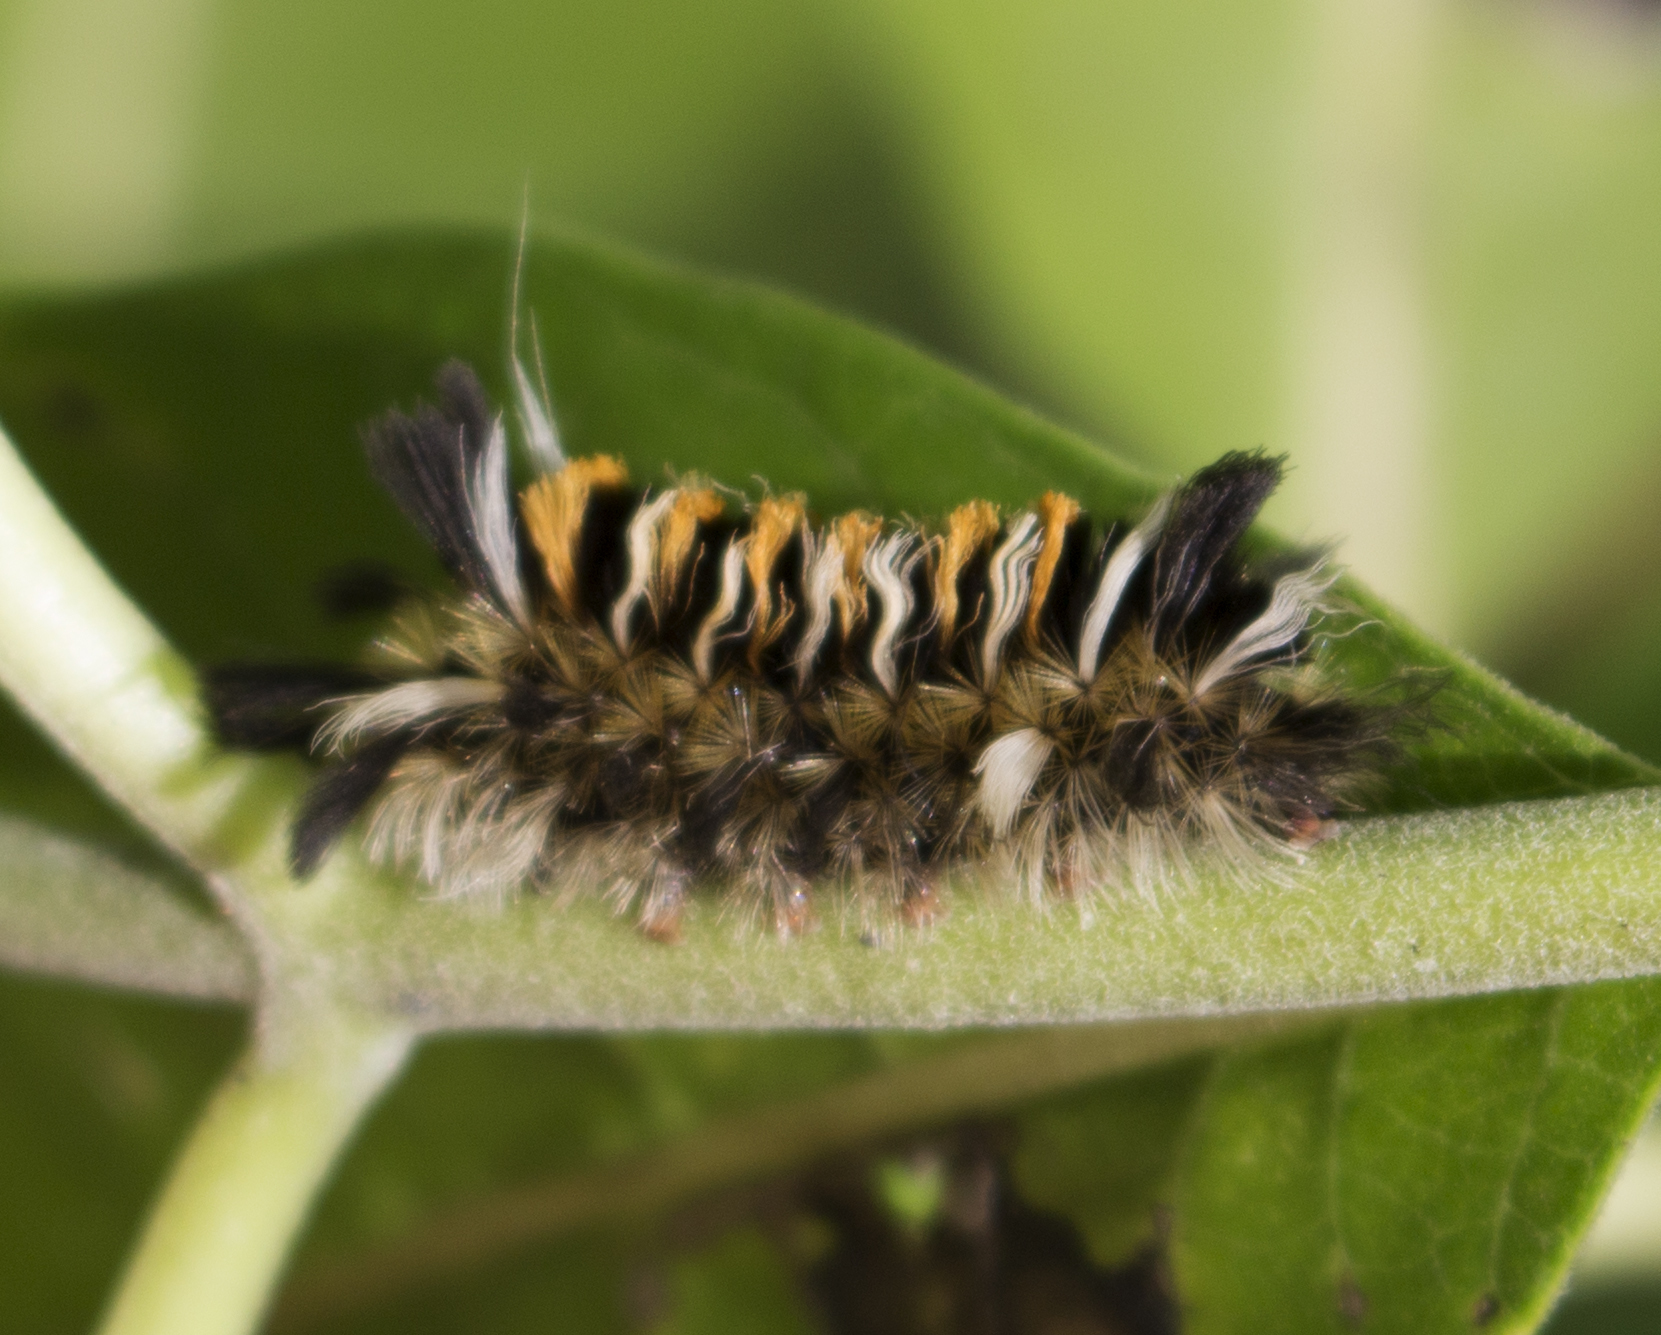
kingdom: Animalia
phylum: Arthropoda
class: Insecta
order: Lepidoptera
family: Erebidae
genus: Euchaetes
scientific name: Euchaetes egle
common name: Milkweed tussock moth
